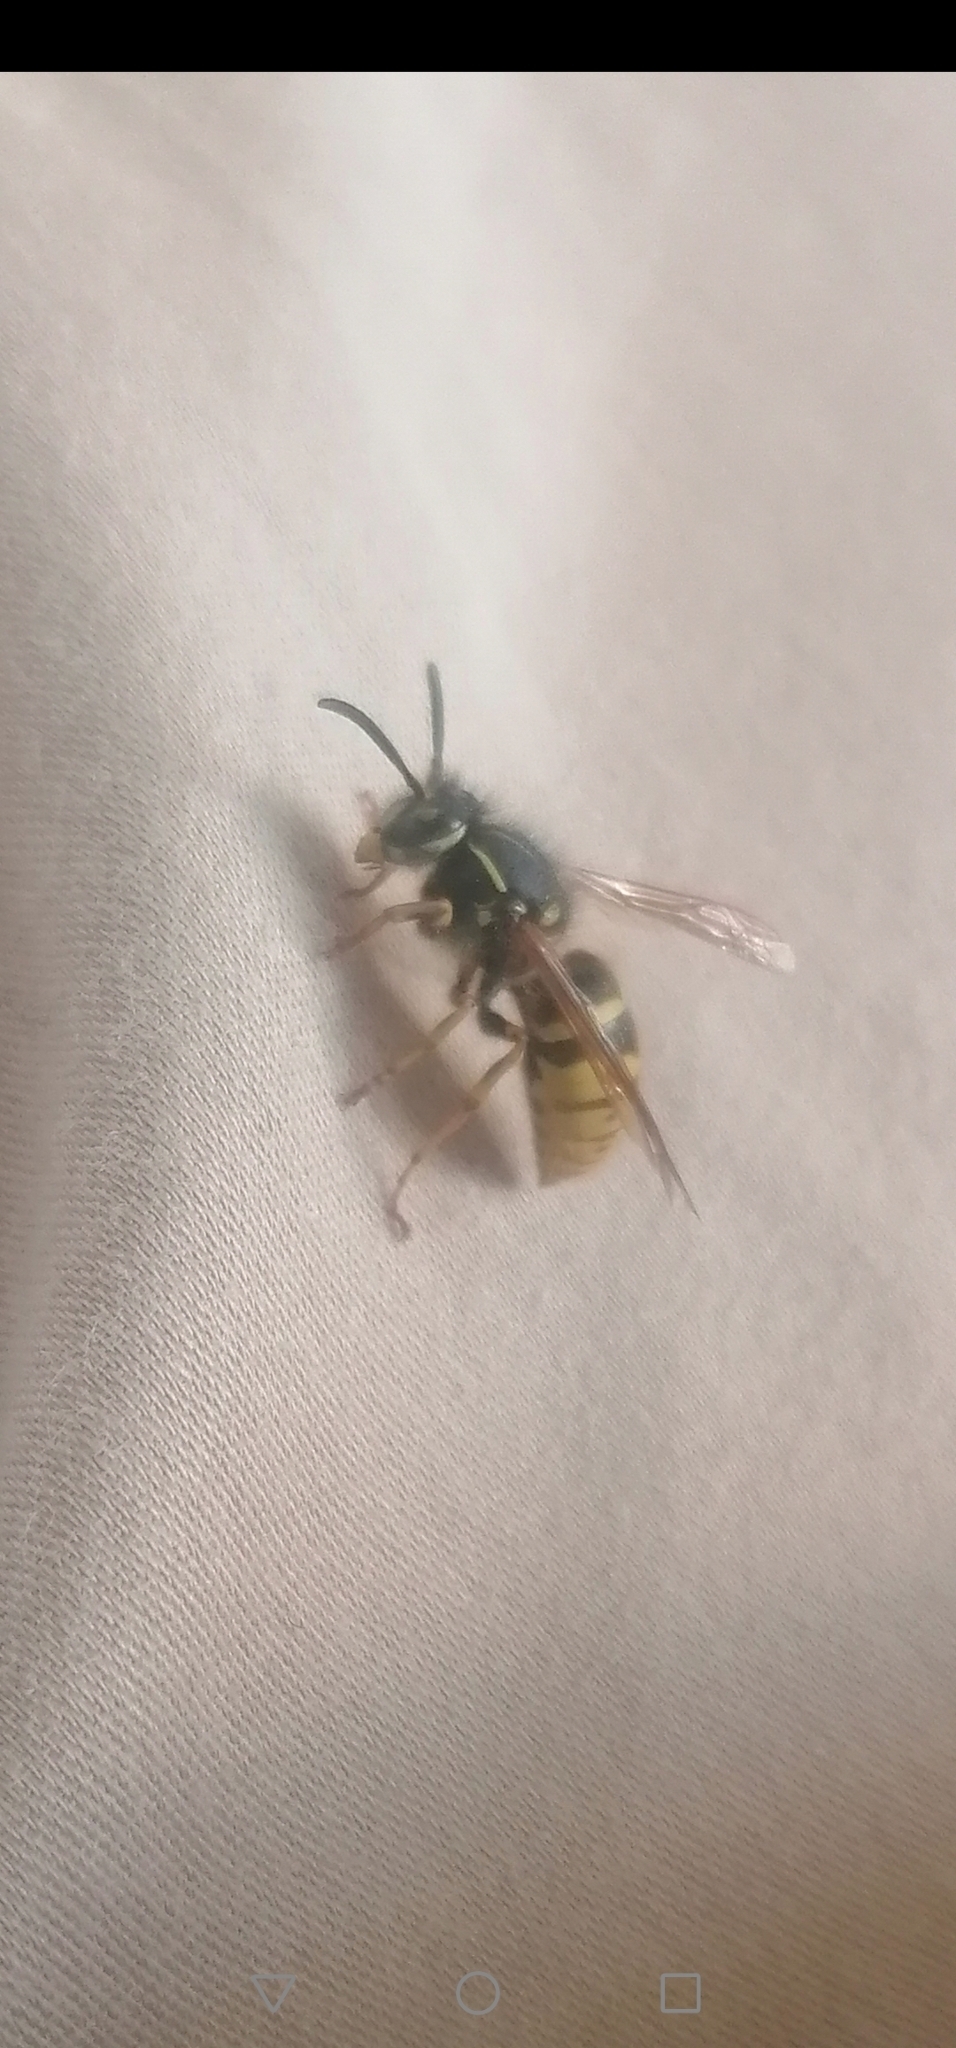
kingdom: Animalia
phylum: Arthropoda
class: Insecta
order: Hymenoptera
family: Vespidae
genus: Vespula
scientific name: Vespula vulgaris
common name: Common wasp
